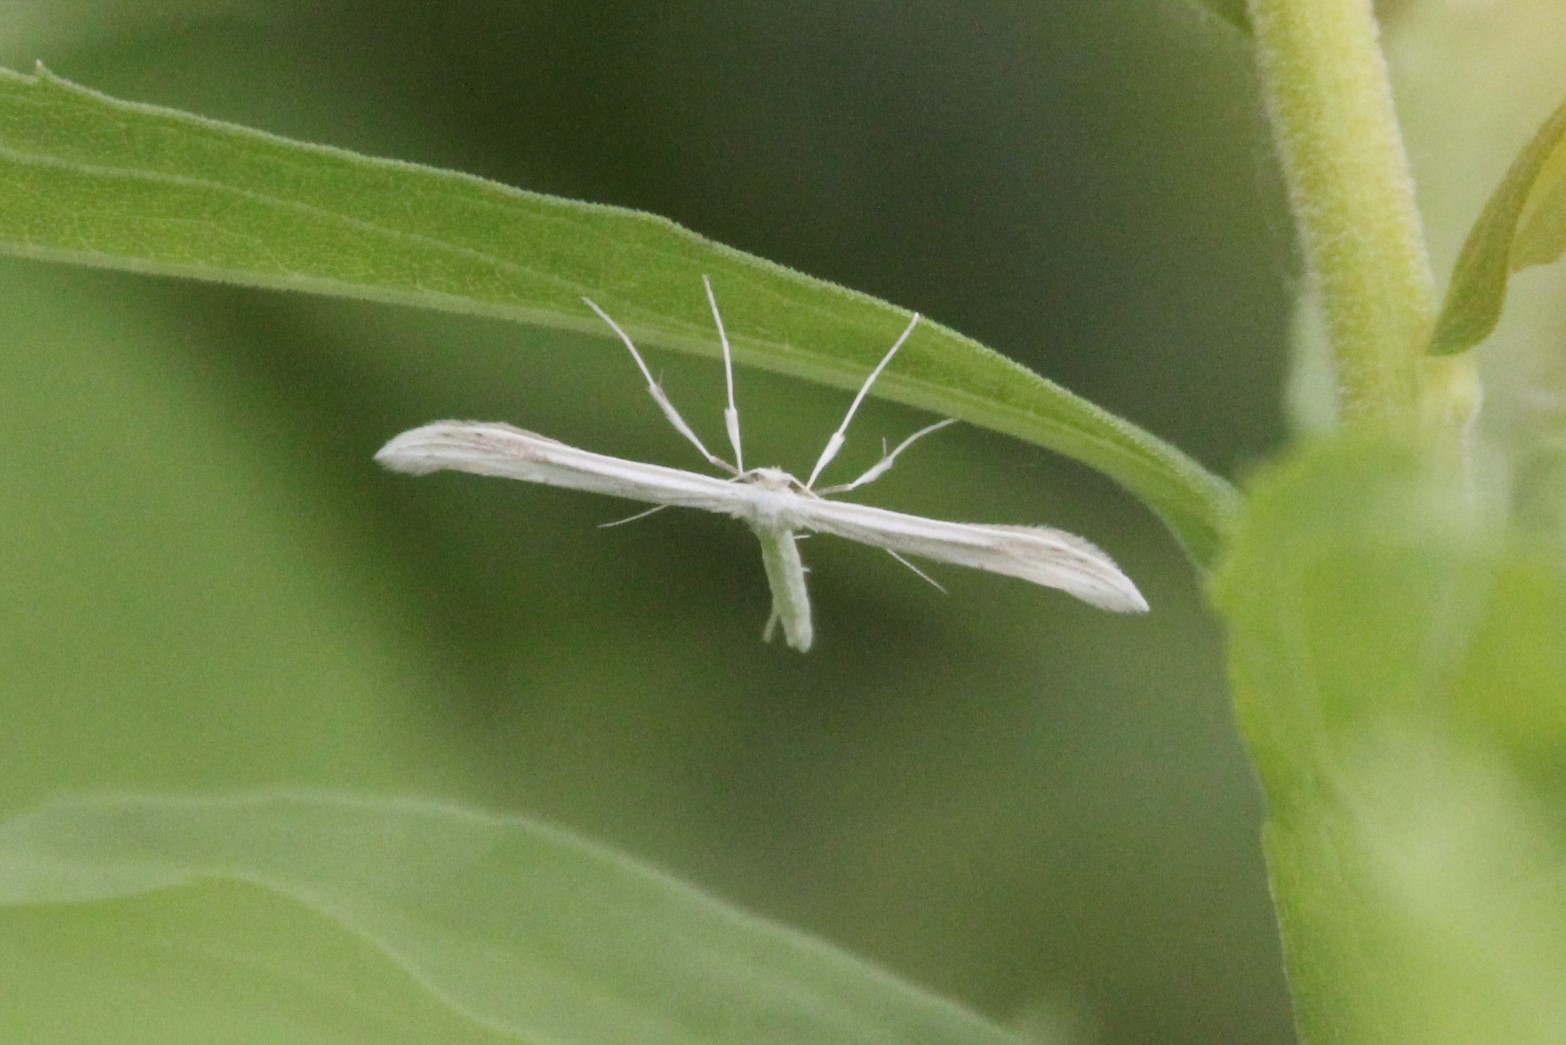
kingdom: Animalia
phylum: Arthropoda
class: Insecta
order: Lepidoptera
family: Pterophoridae
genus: Hellinsia
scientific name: Hellinsia homodactylus
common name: Plain plume moth
